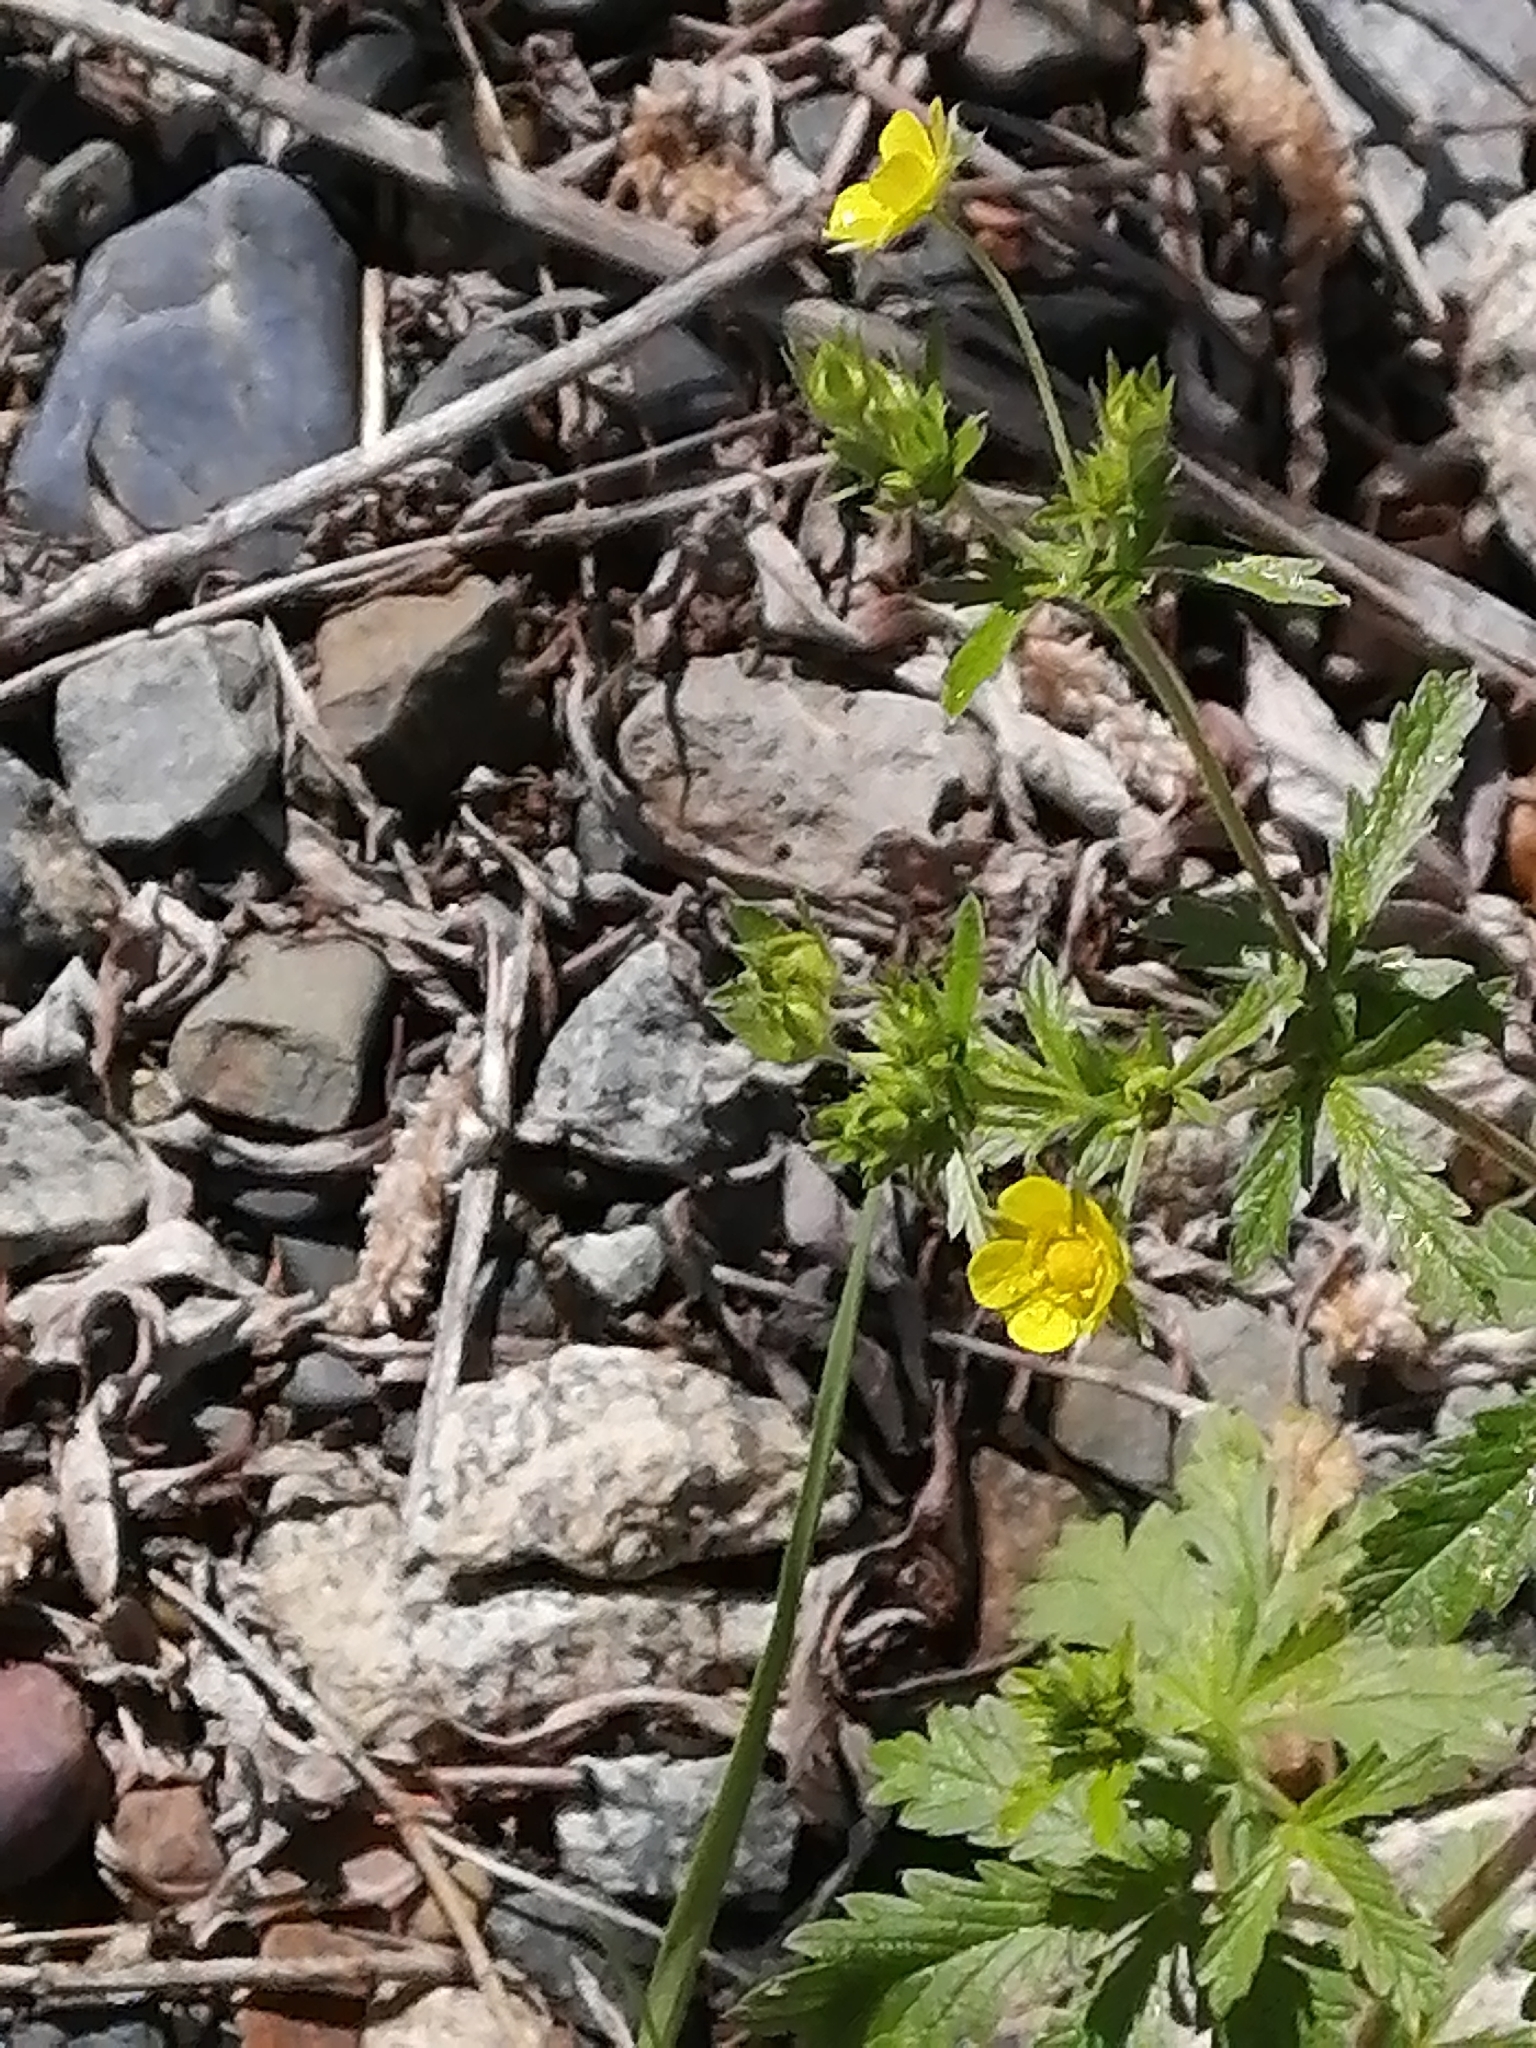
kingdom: Plantae
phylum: Tracheophyta
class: Magnoliopsida
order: Rosales
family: Rosaceae
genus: Potentilla
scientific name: Potentilla intermedia
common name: Downy cinquefoil
